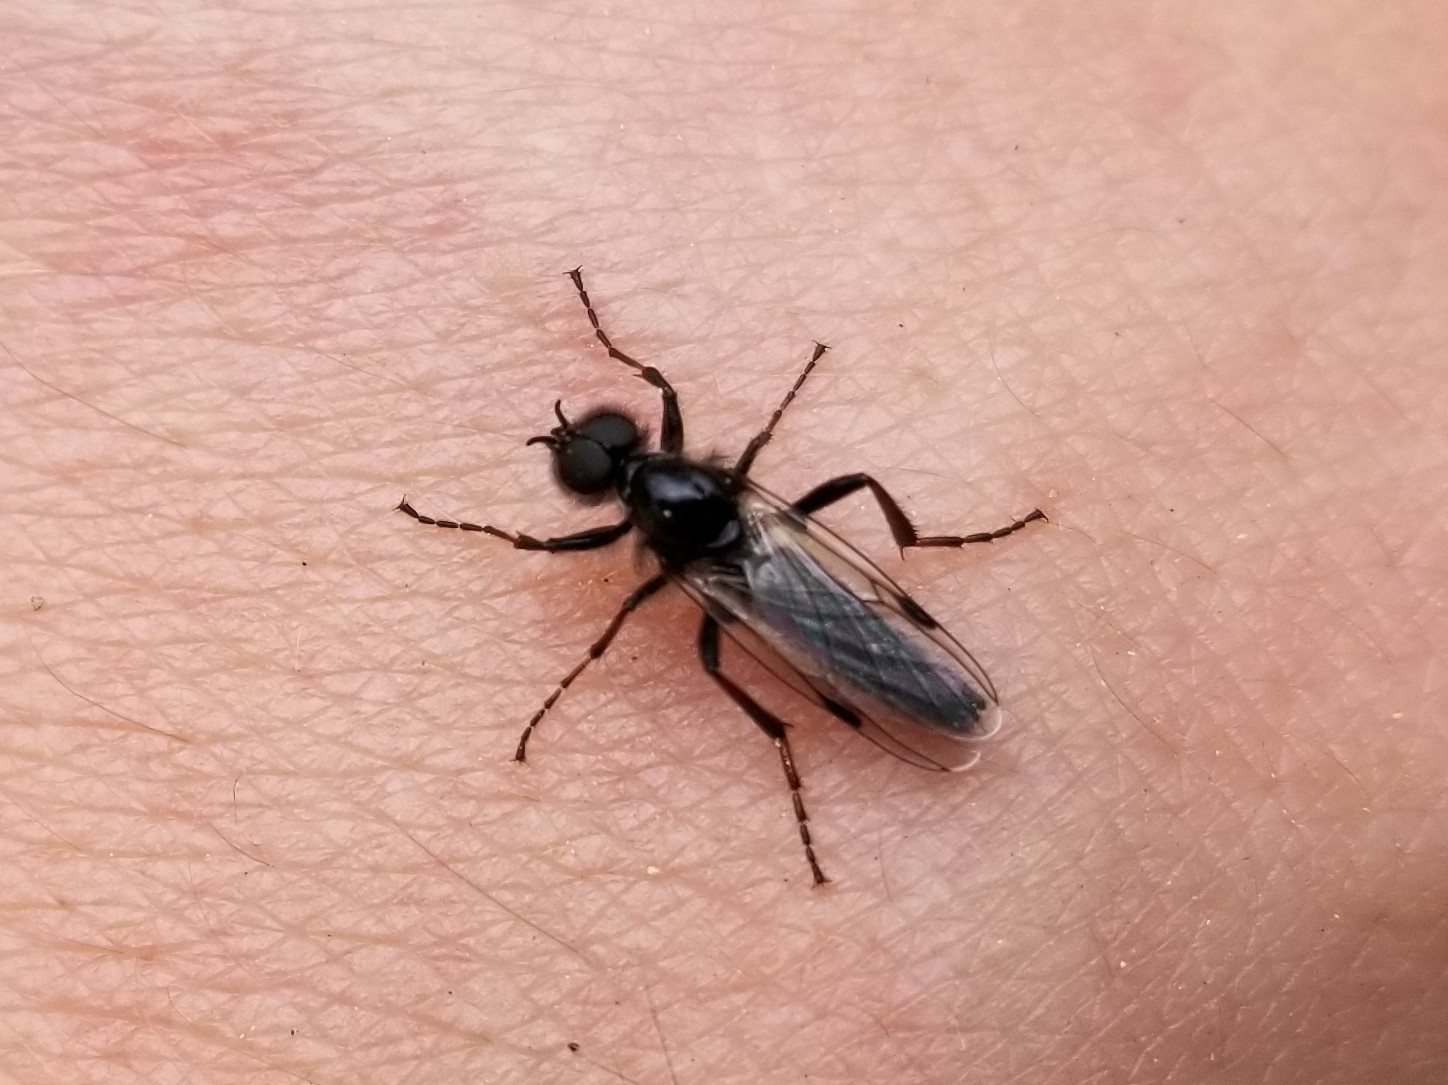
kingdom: Animalia
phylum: Arthropoda
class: Insecta
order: Diptera
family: Bibionidae
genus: Bibio
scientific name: Bibio vestitus
